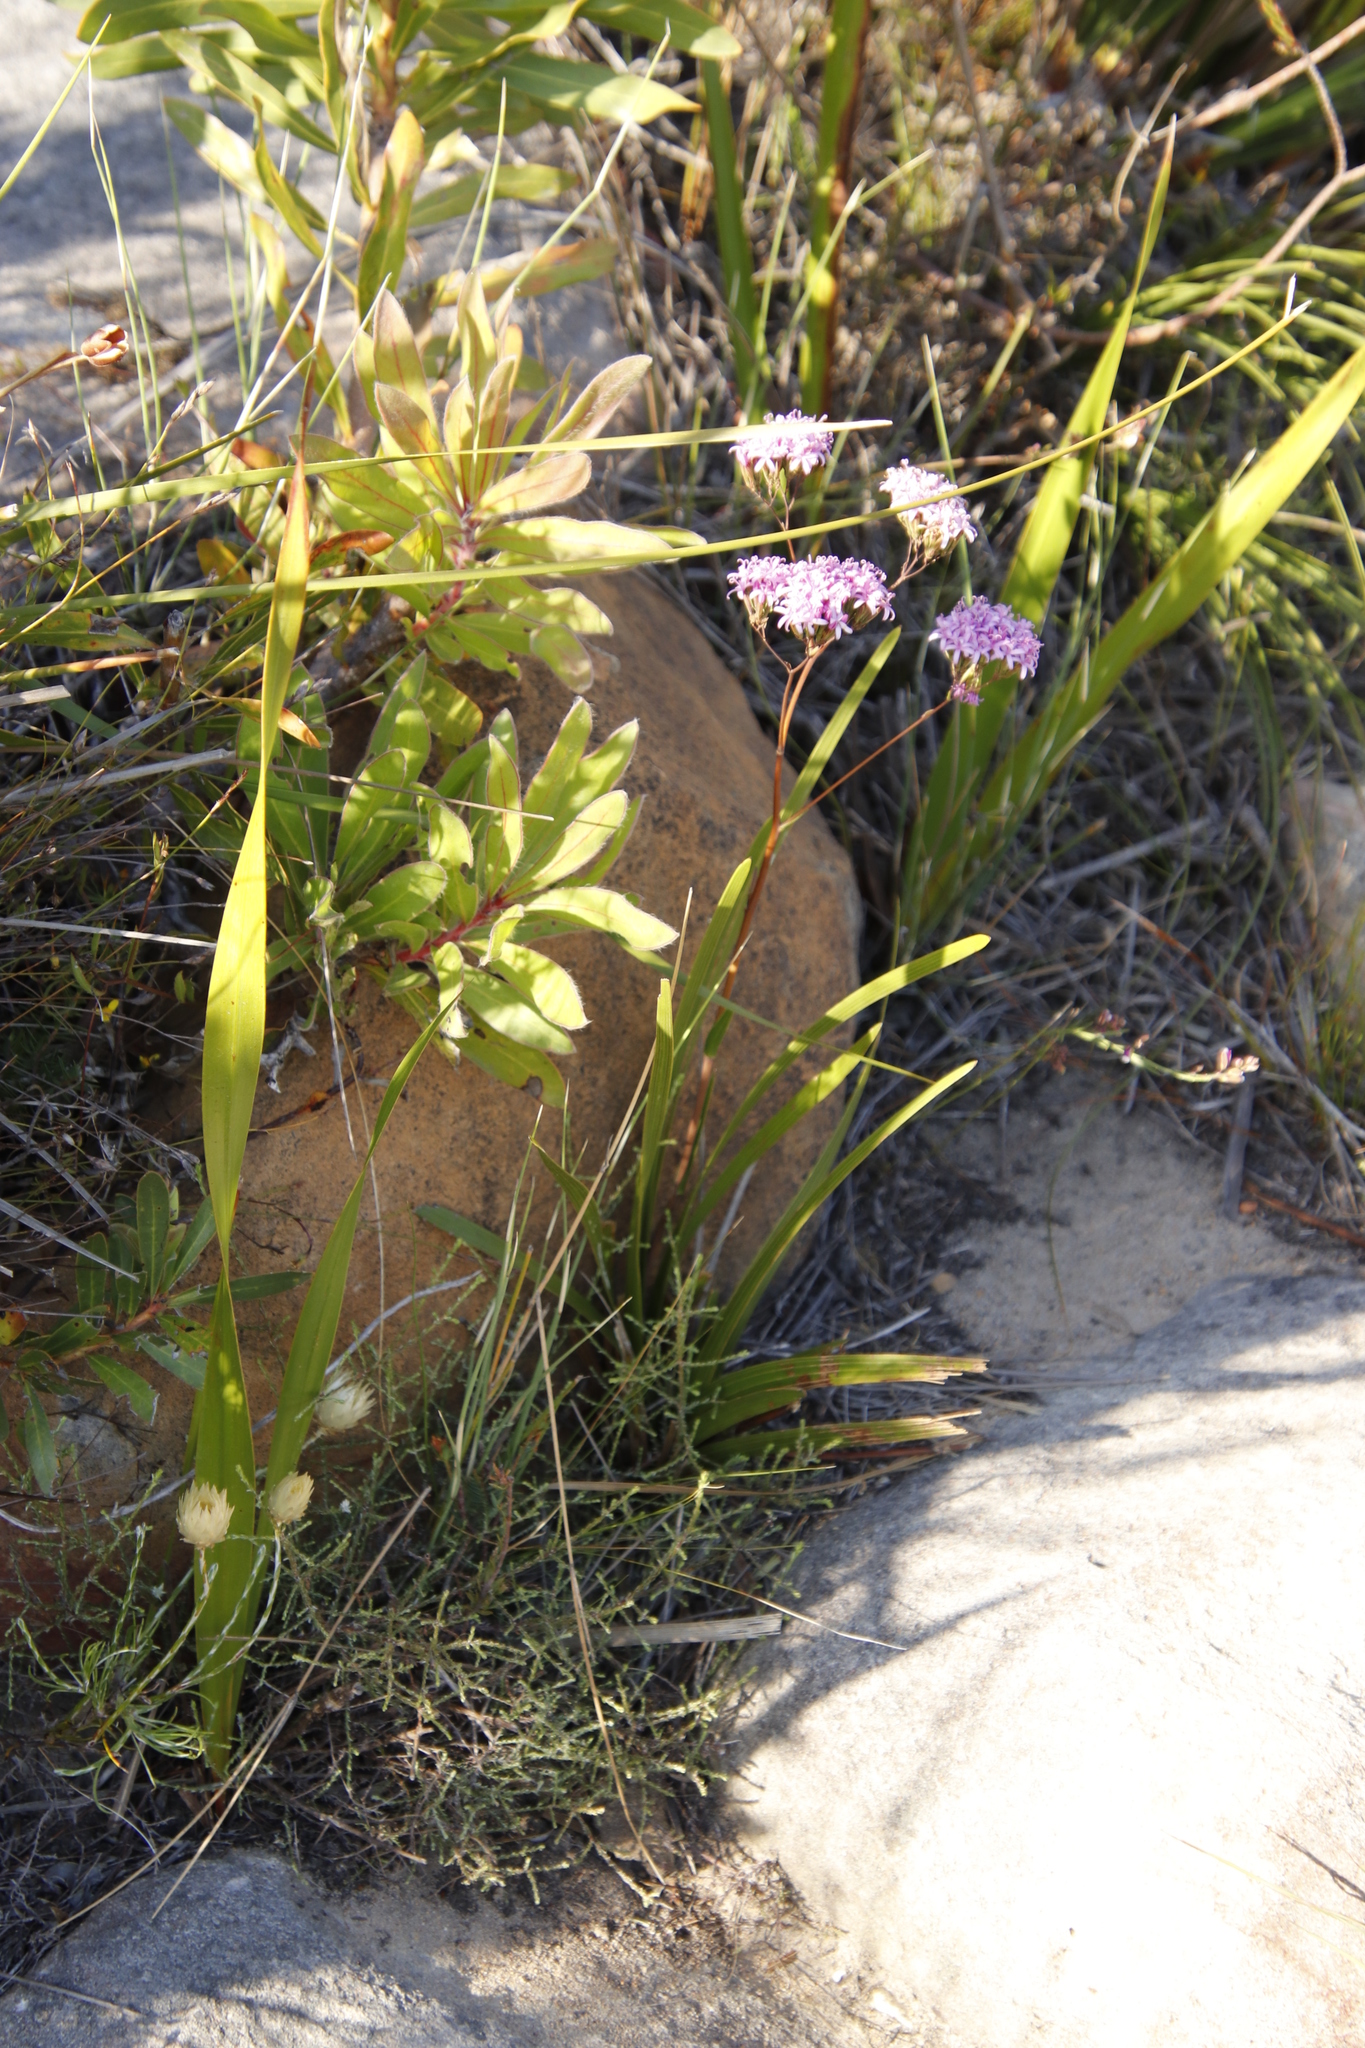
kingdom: Plantae
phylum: Tracheophyta
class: Magnoliopsida
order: Asterales
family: Asteraceae
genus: Corymbium
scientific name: Corymbium glabrum
